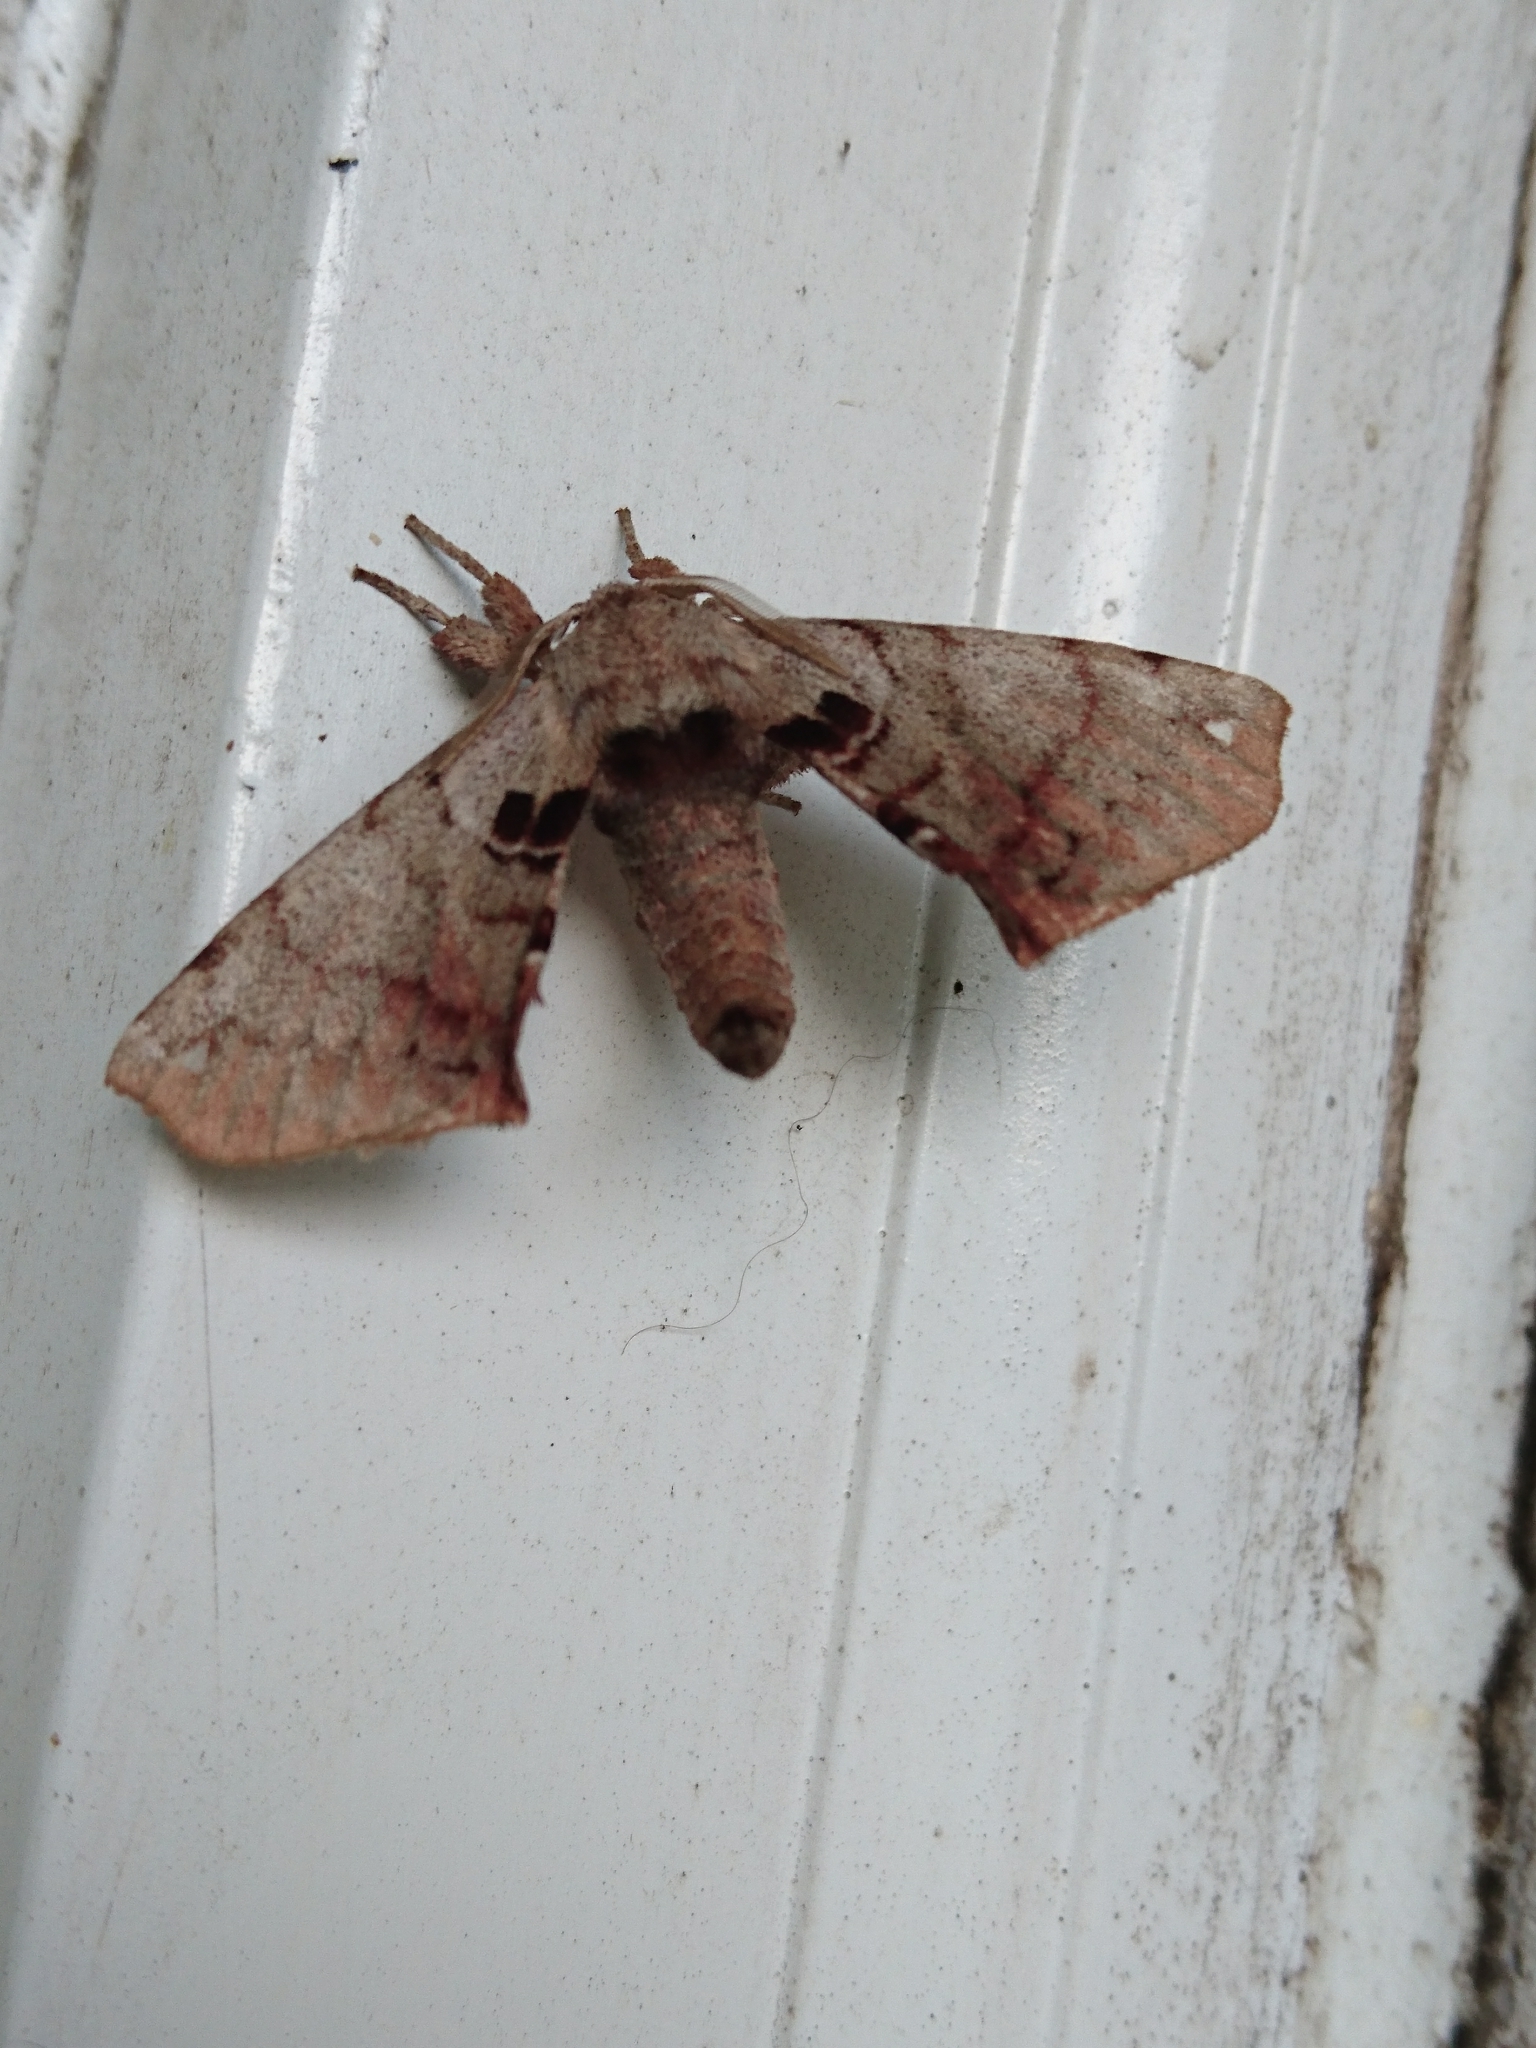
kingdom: Animalia
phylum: Arthropoda
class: Insecta
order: Lepidoptera
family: Apatelodidae
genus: Hygrochroa
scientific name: Hygrochroa Apatelodes torrefacta
